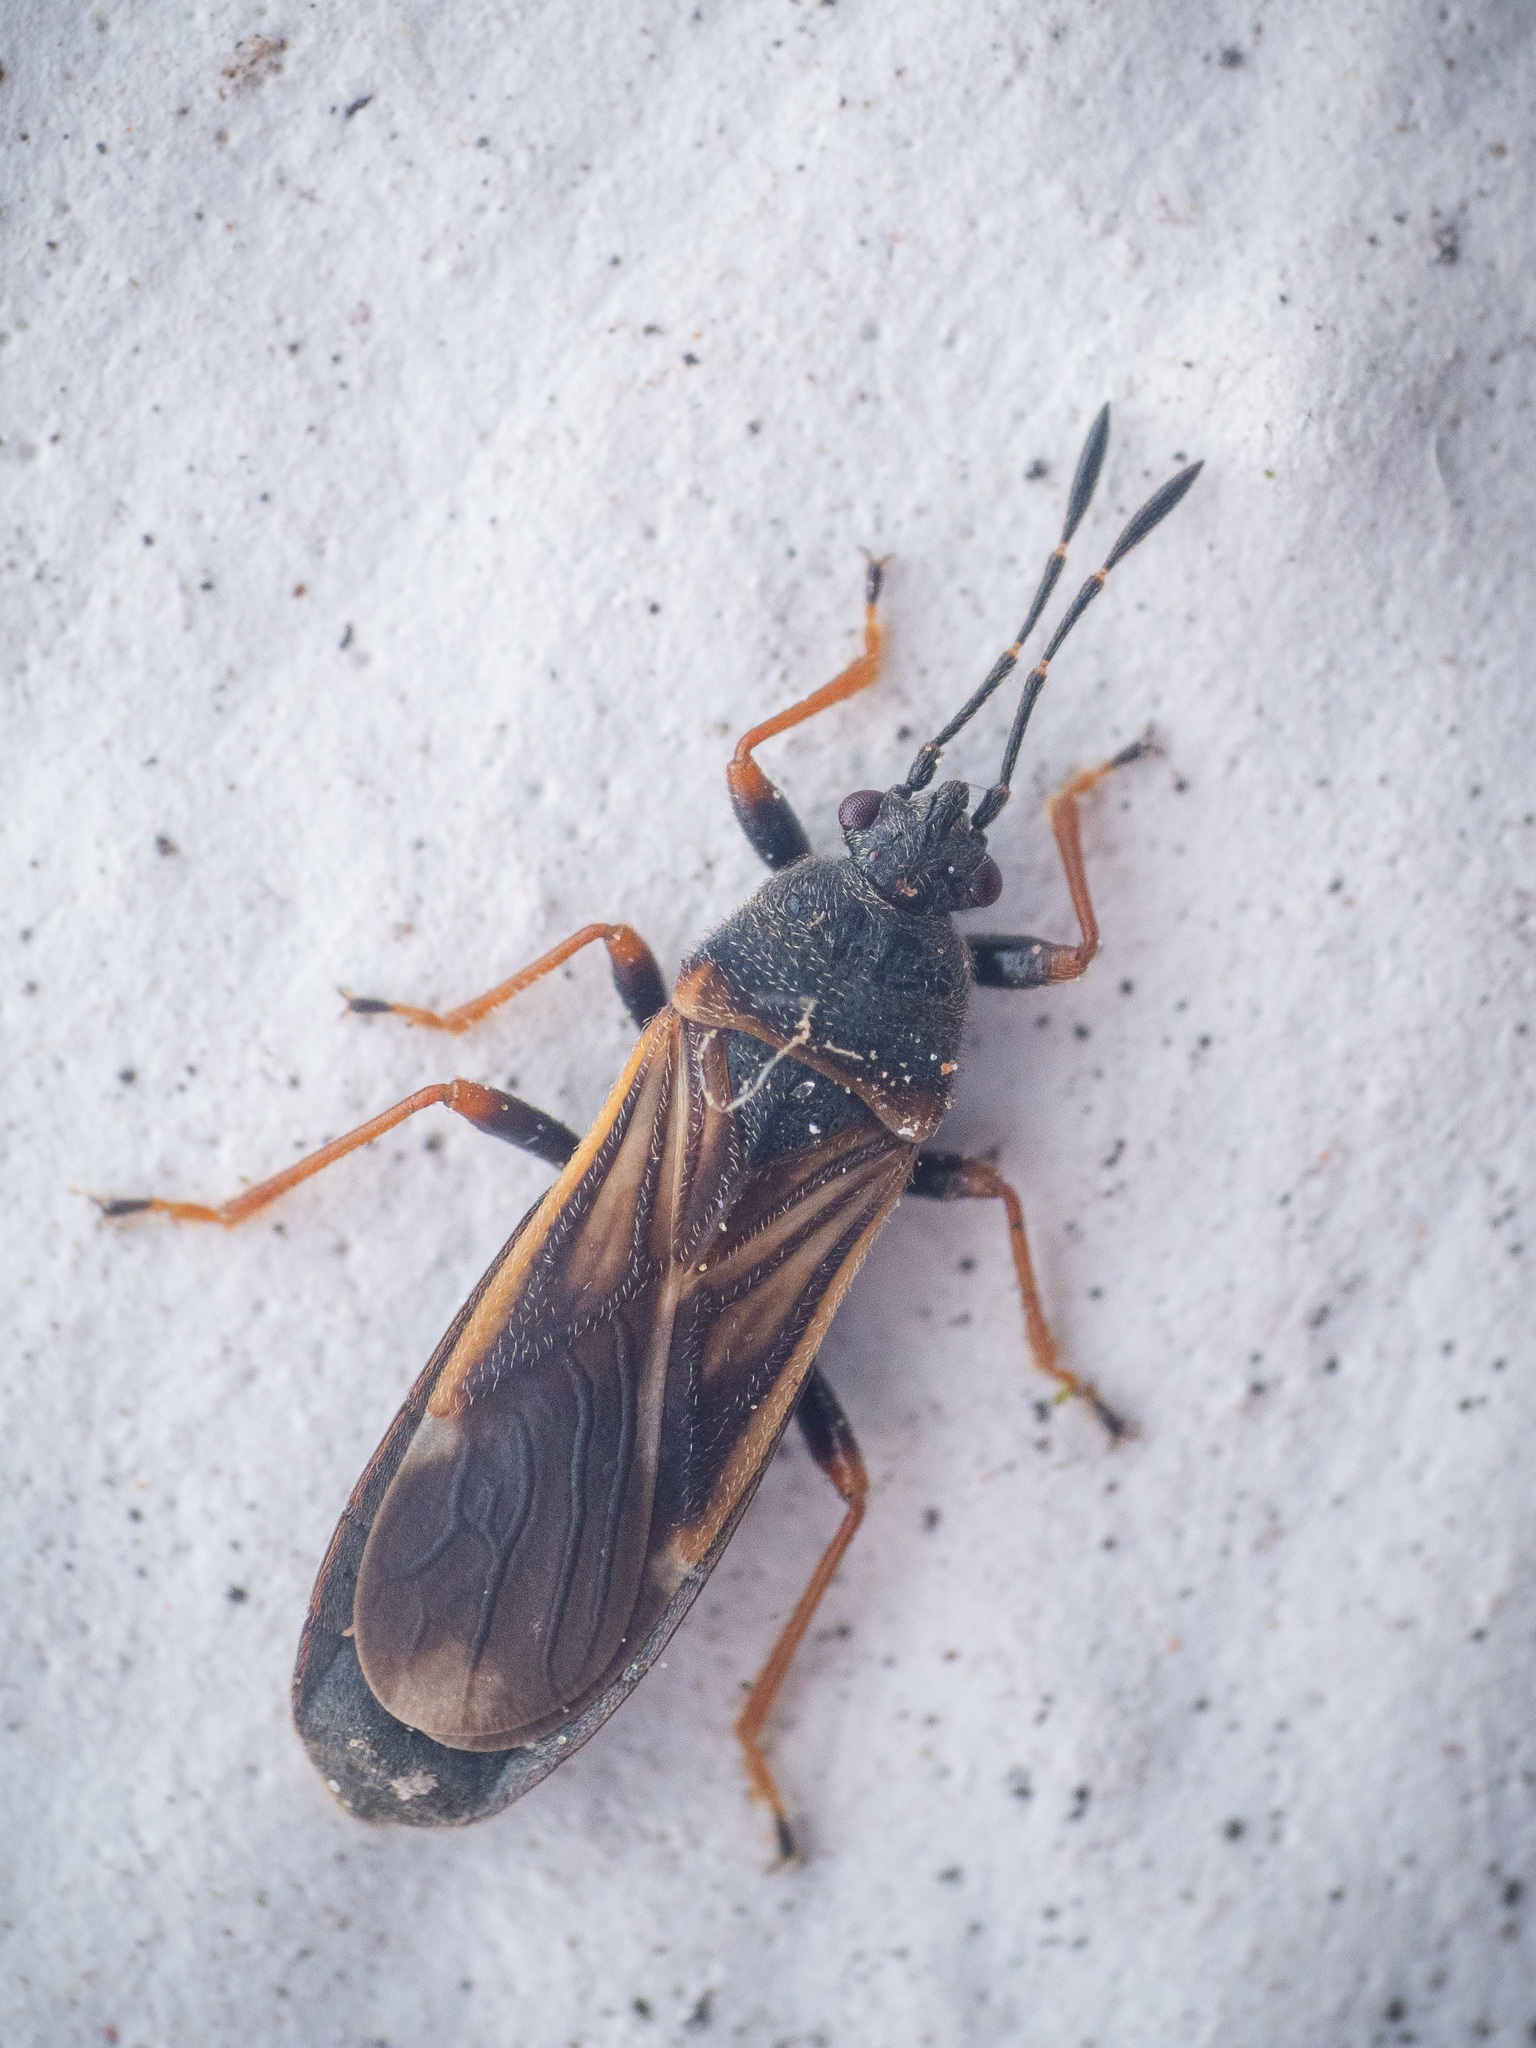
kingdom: Animalia
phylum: Arthropoda
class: Insecta
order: Hemiptera
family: Blissidae
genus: Ischnodemus
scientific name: Ischnodemus sabuleti
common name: European cinchbug
